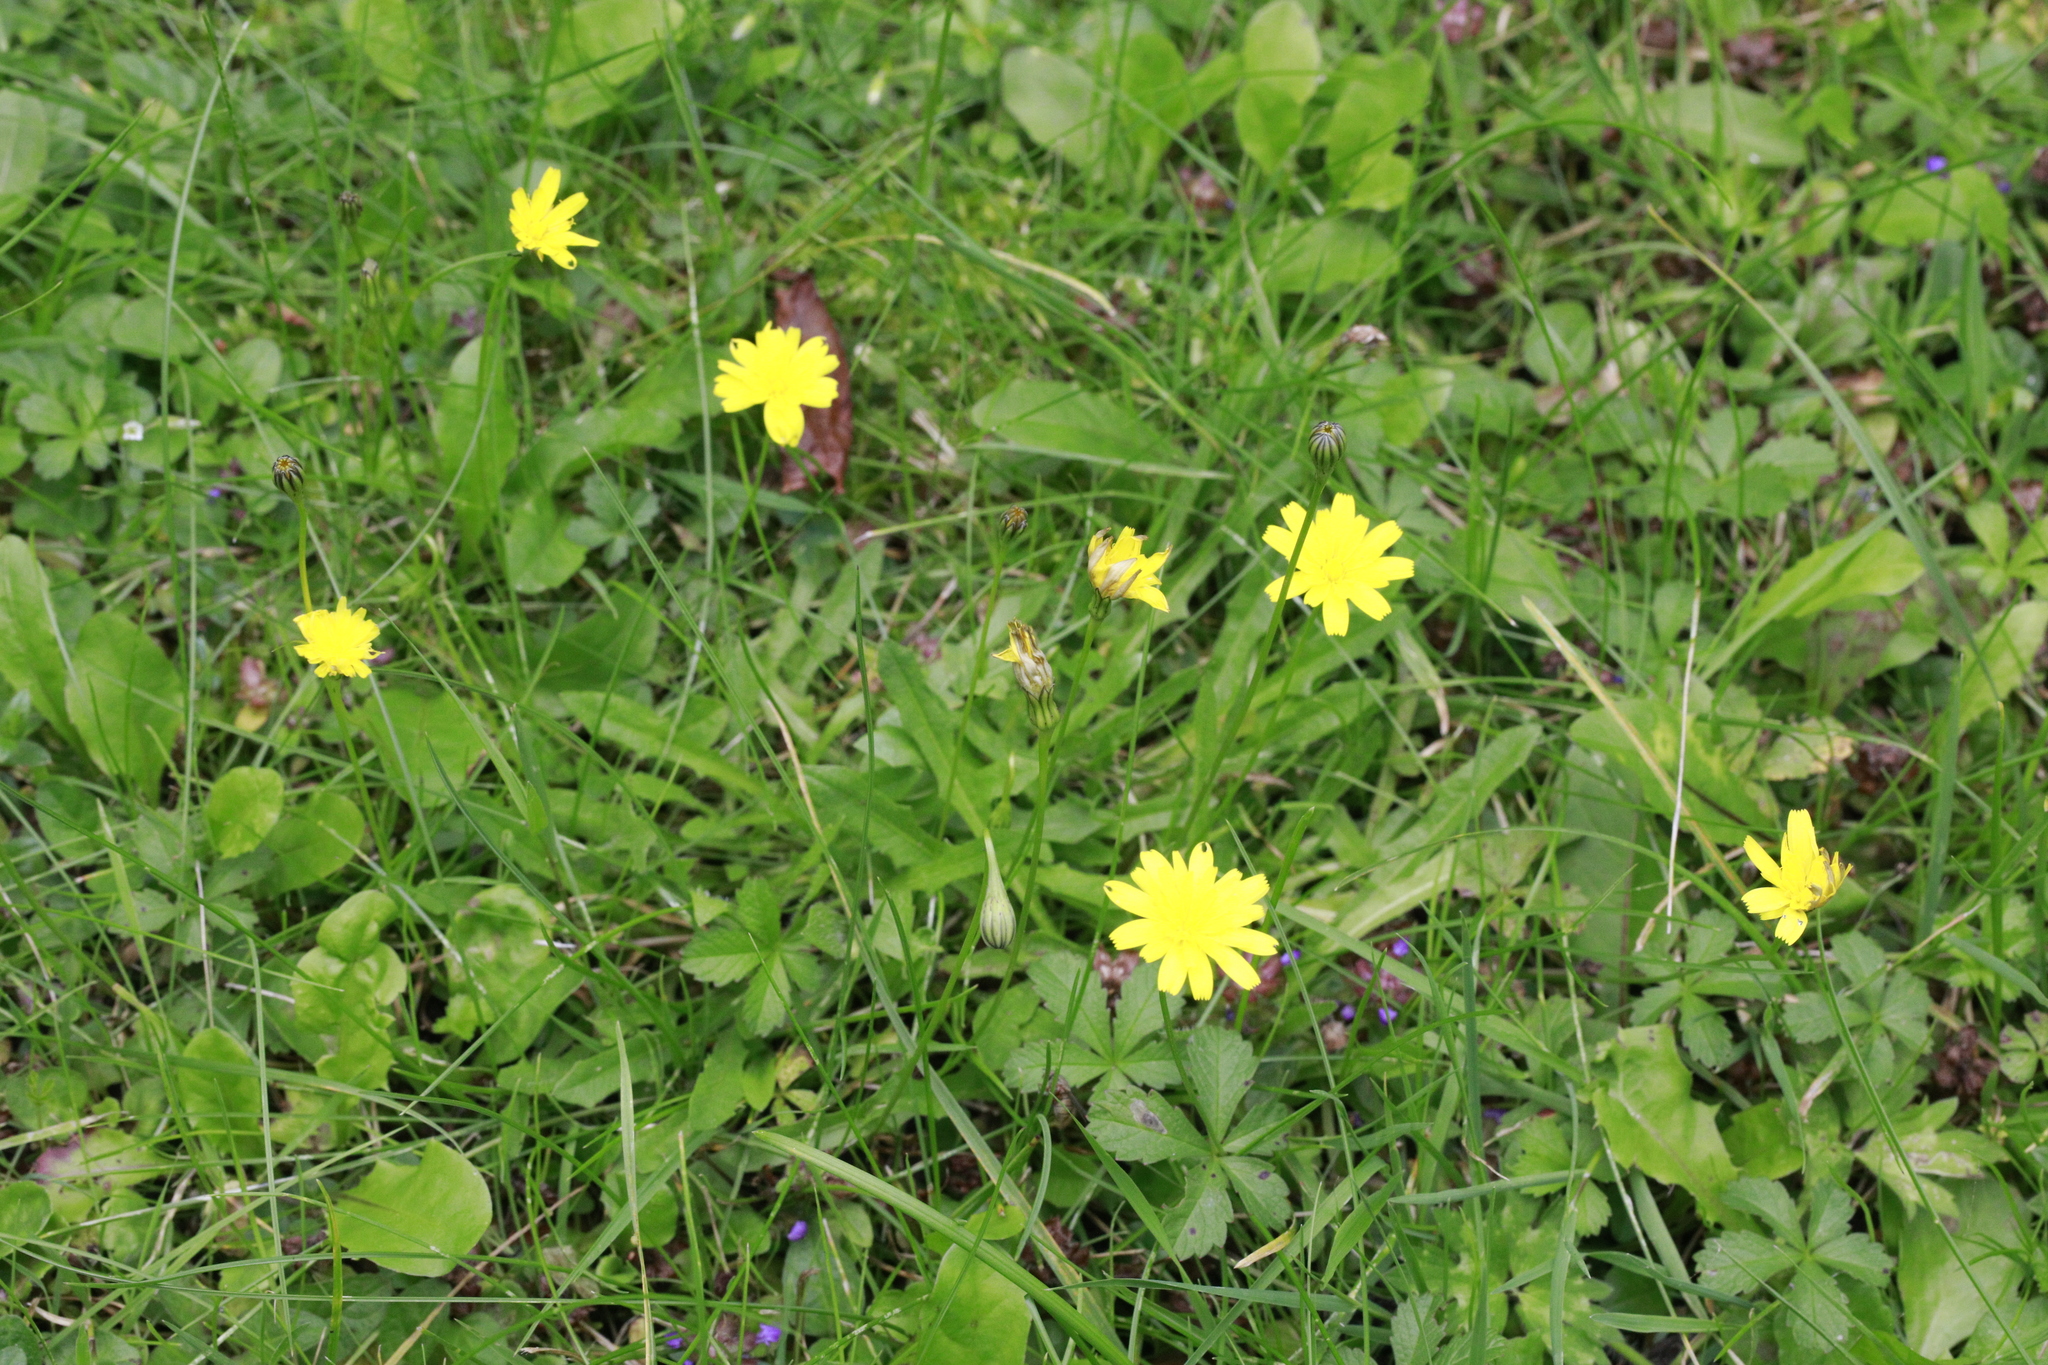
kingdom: Plantae
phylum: Tracheophyta
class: Magnoliopsida
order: Asterales
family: Asteraceae
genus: Scorzoneroides
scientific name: Scorzoneroides autumnalis
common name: Autumn hawkbit
